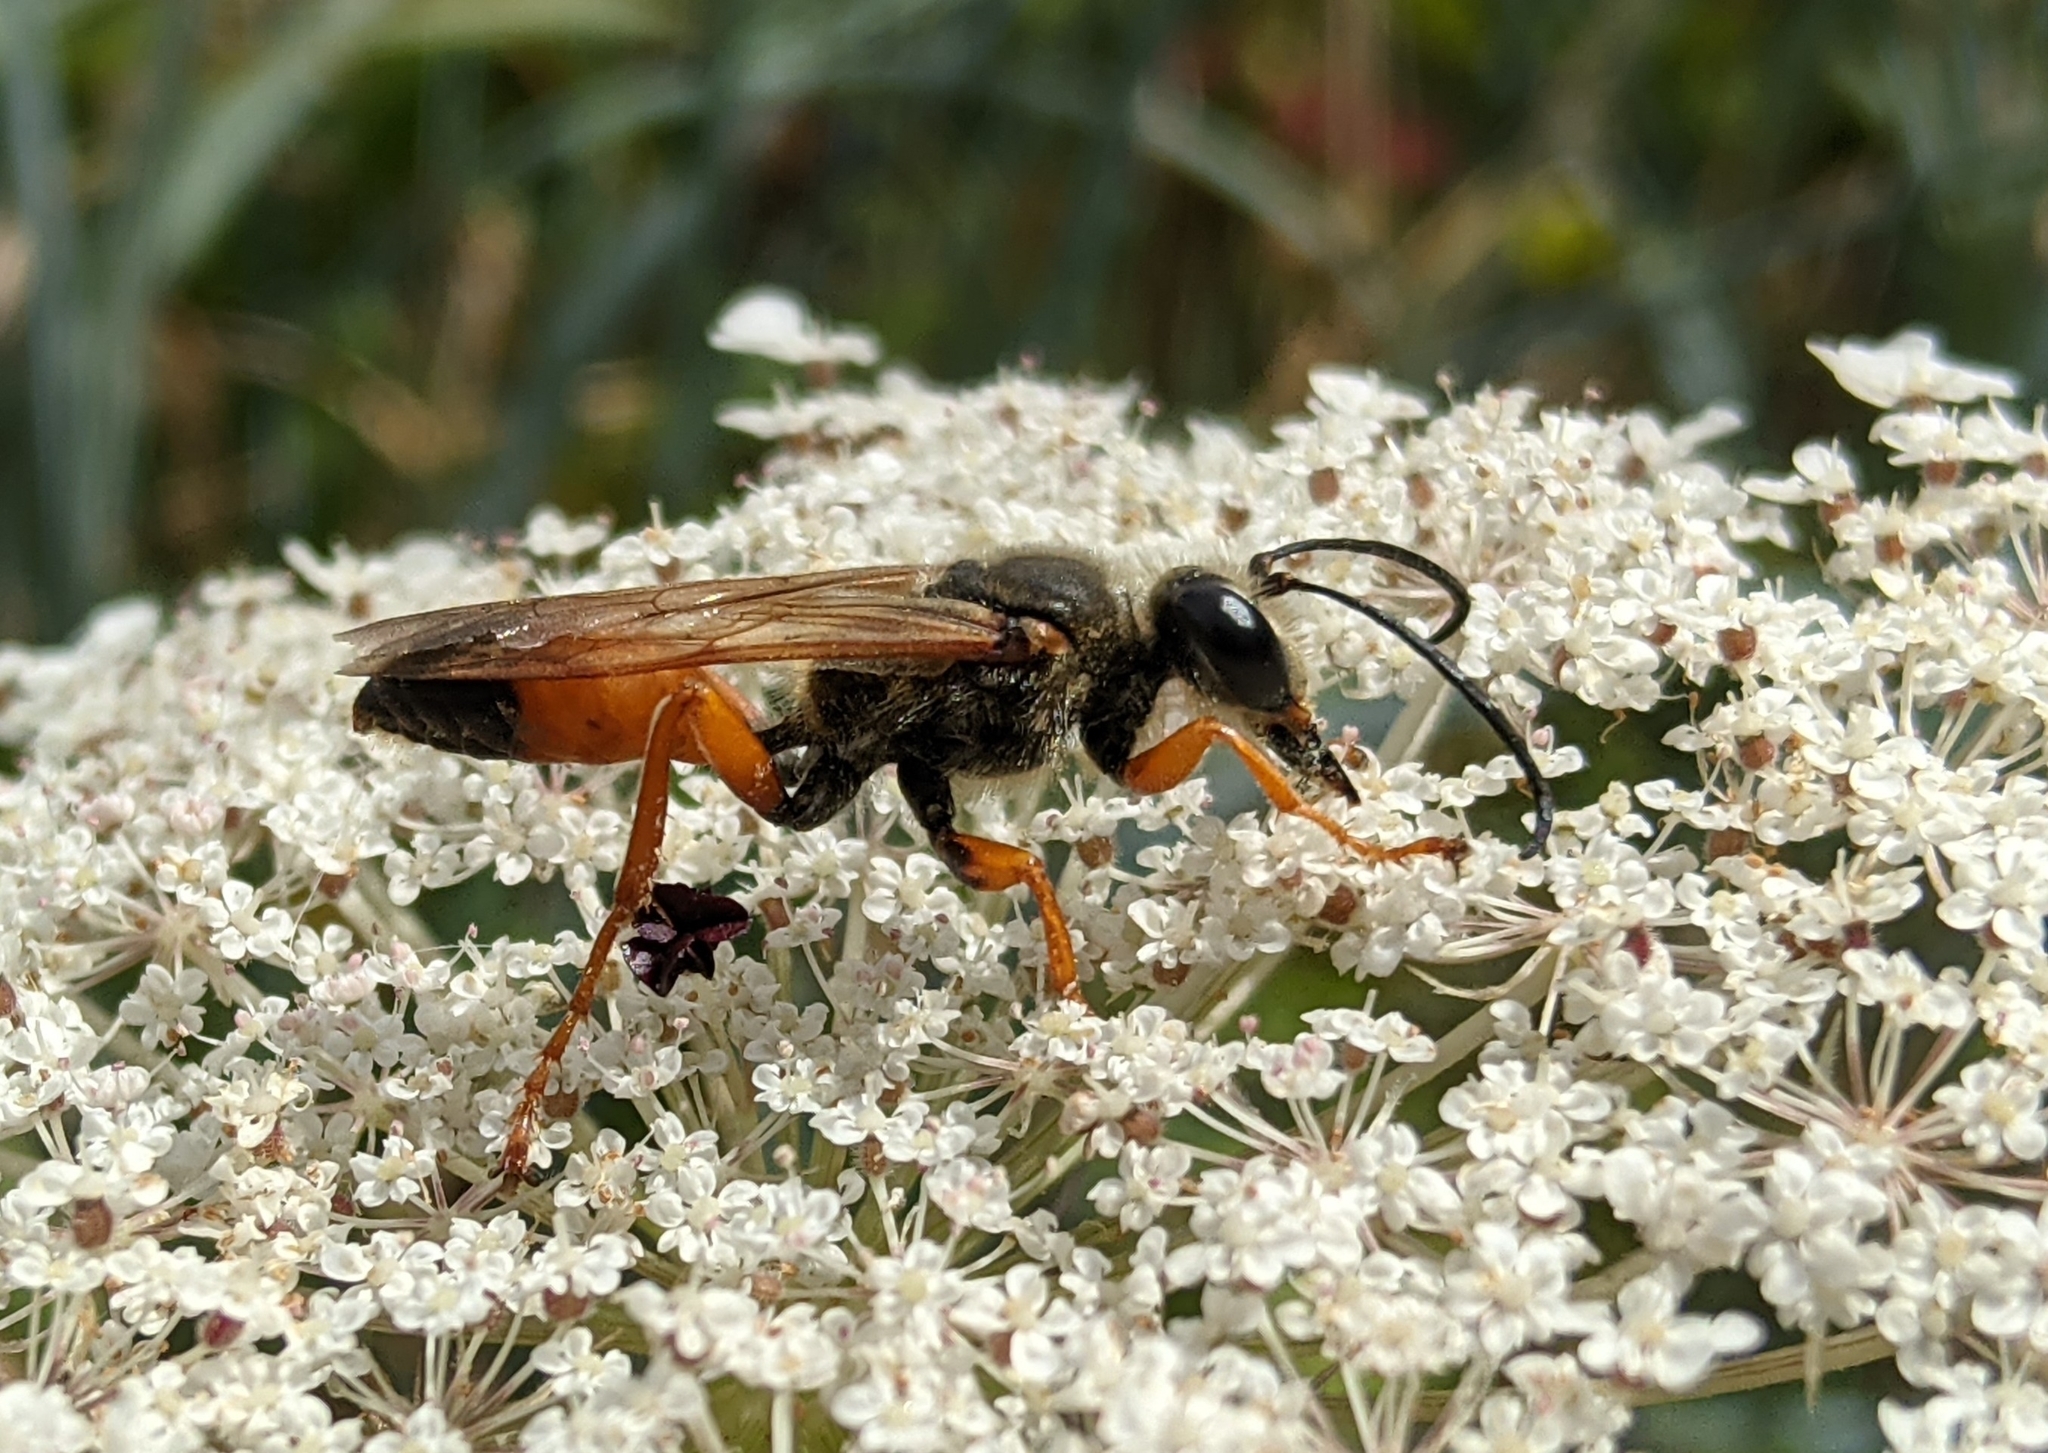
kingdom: Animalia
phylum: Arthropoda
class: Insecta
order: Hymenoptera
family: Sphecidae
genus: Sphex
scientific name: Sphex ichneumoneus
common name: Great golden digger wasp
